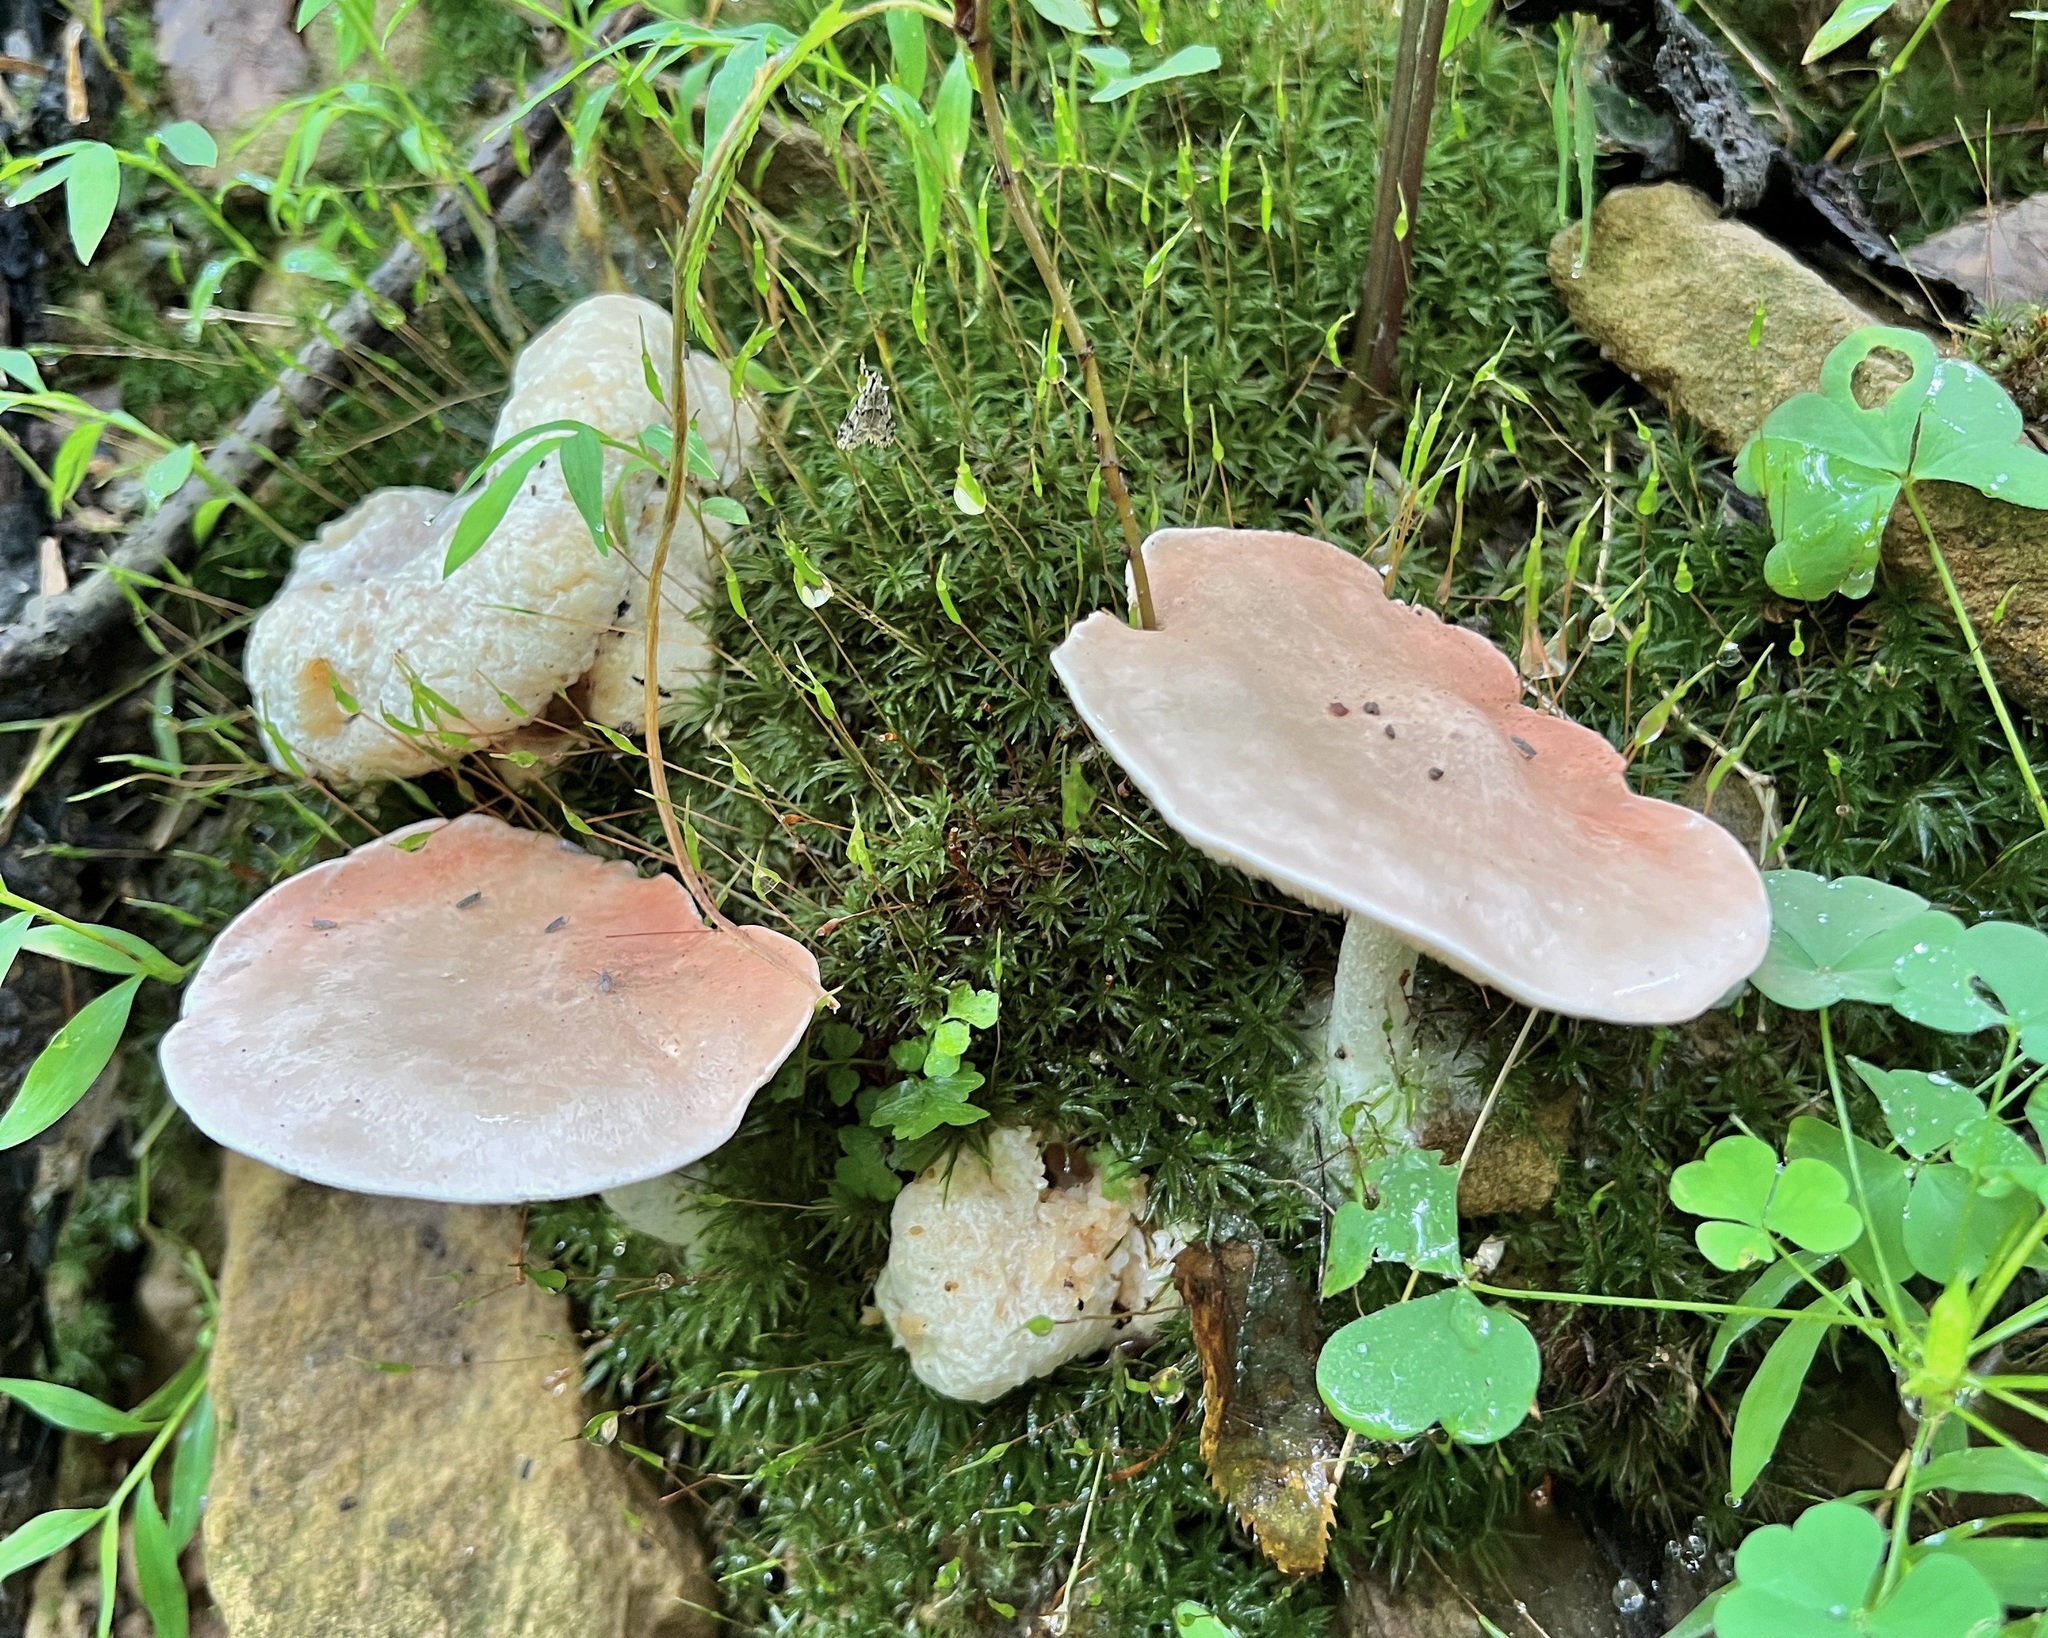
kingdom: Fungi
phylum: Basidiomycota
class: Agaricomycetes
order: Agaricales
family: Entolomataceae
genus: Entoloma
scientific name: Entoloma abortivum
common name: Aborted entoloma
